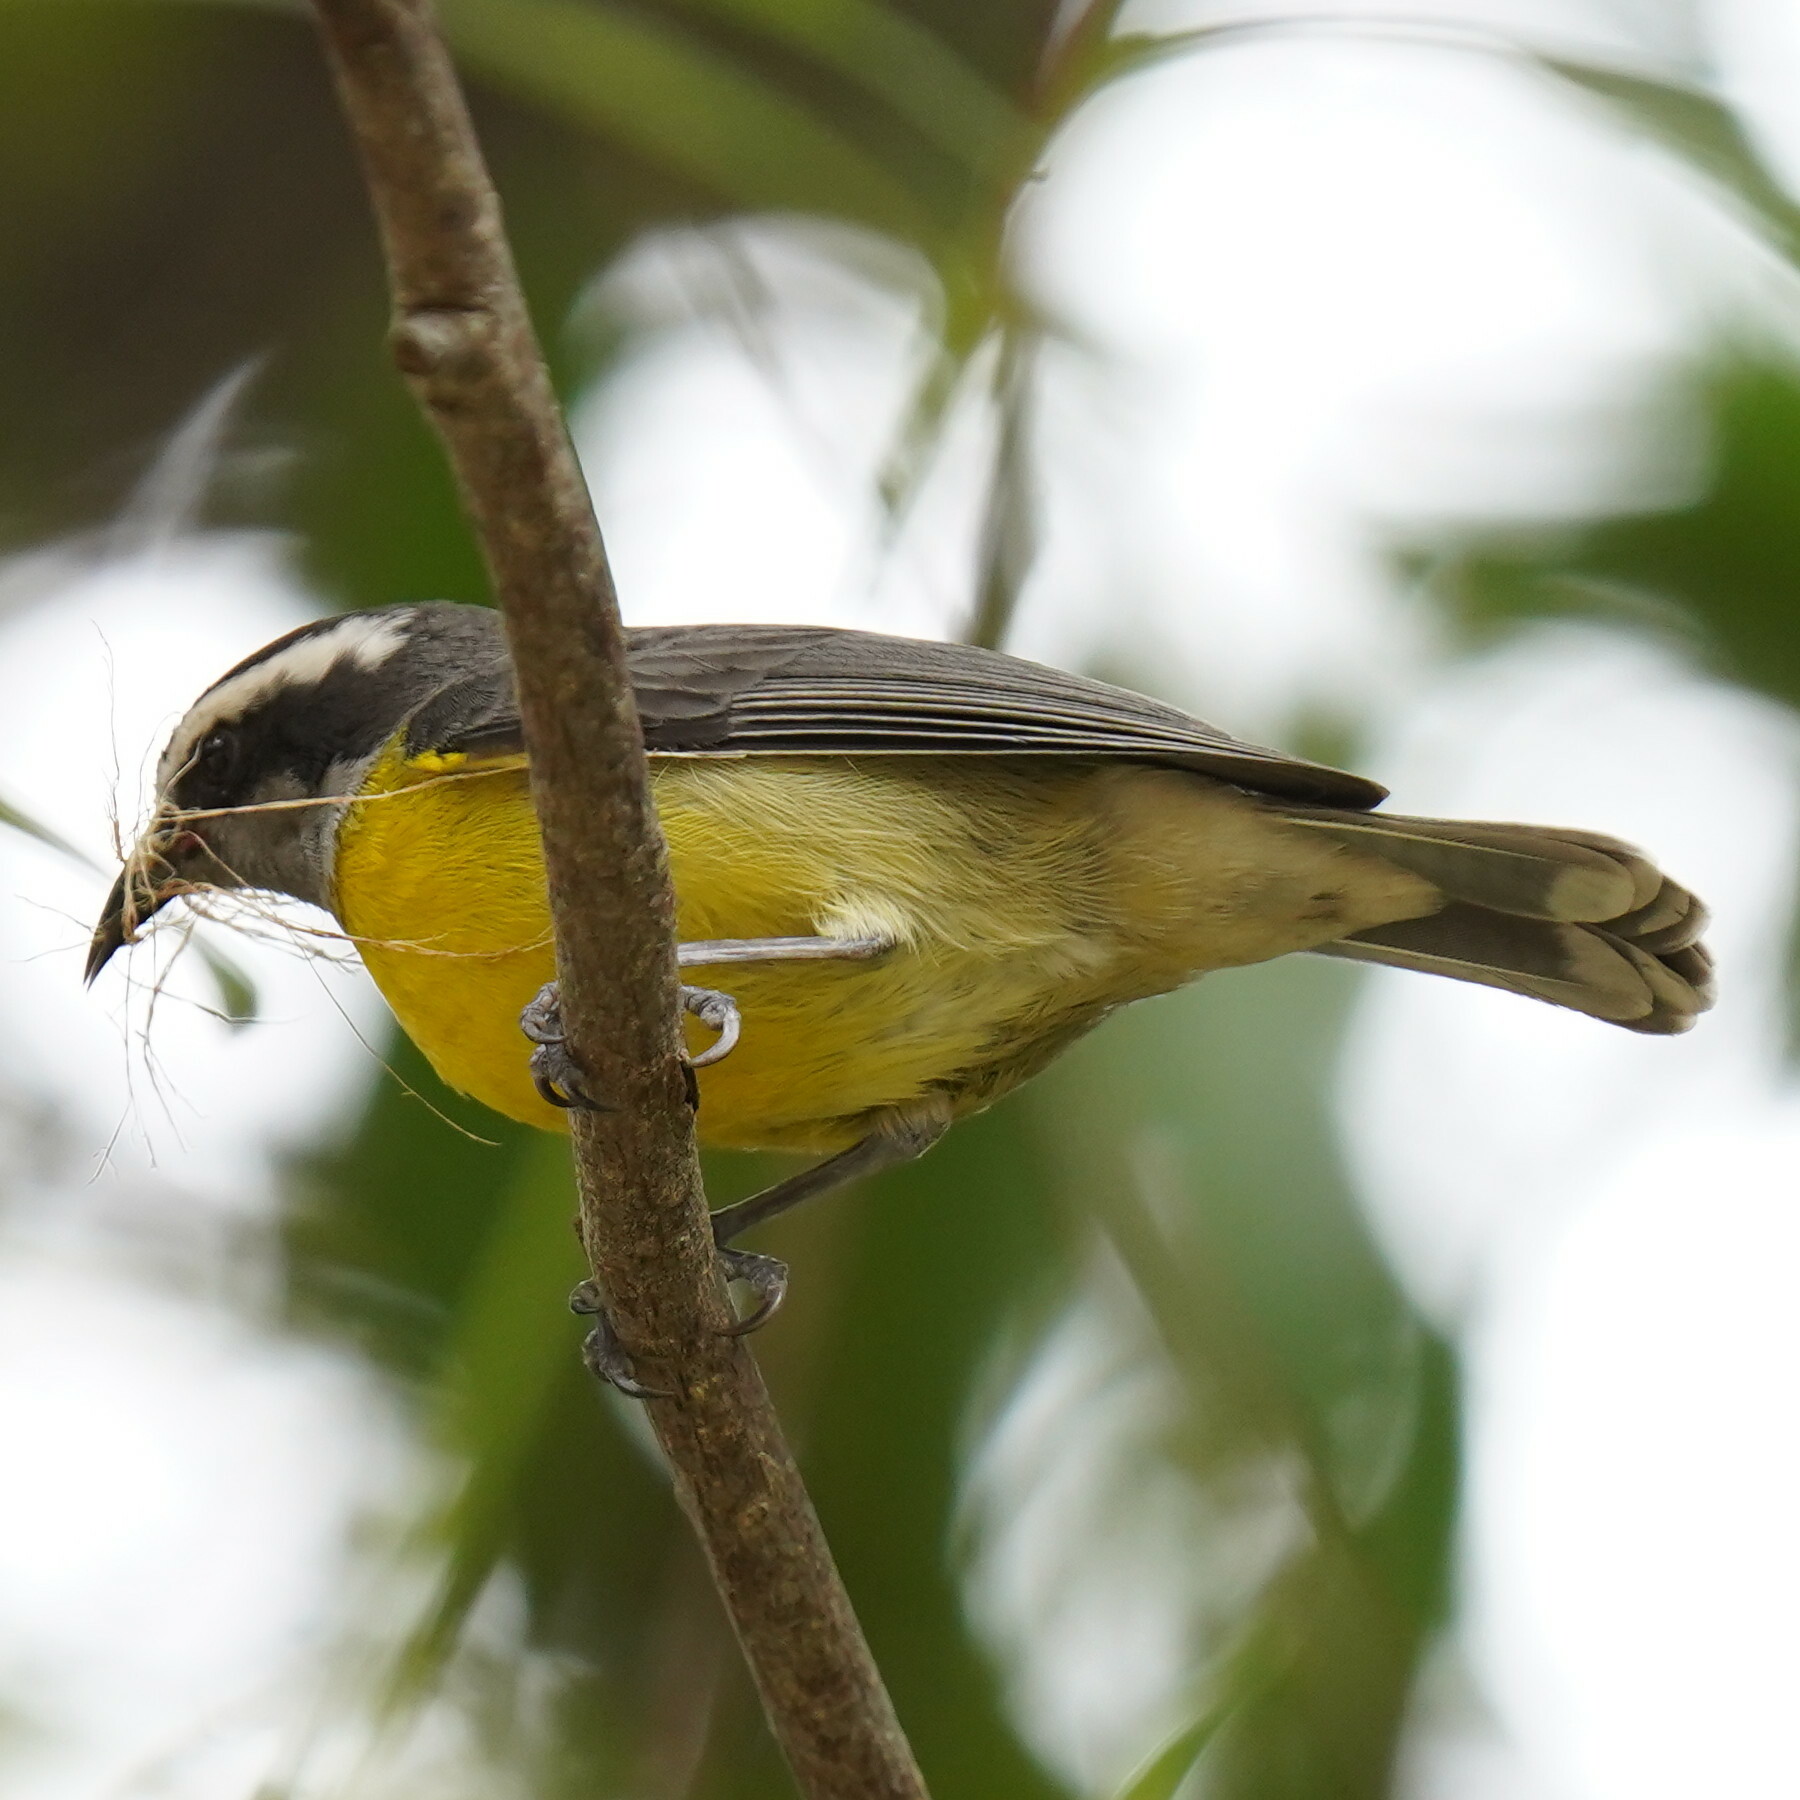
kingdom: Animalia
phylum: Chordata
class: Aves
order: Passeriformes
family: Thraupidae
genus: Coereba
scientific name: Coereba flaveola
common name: Bananaquit
